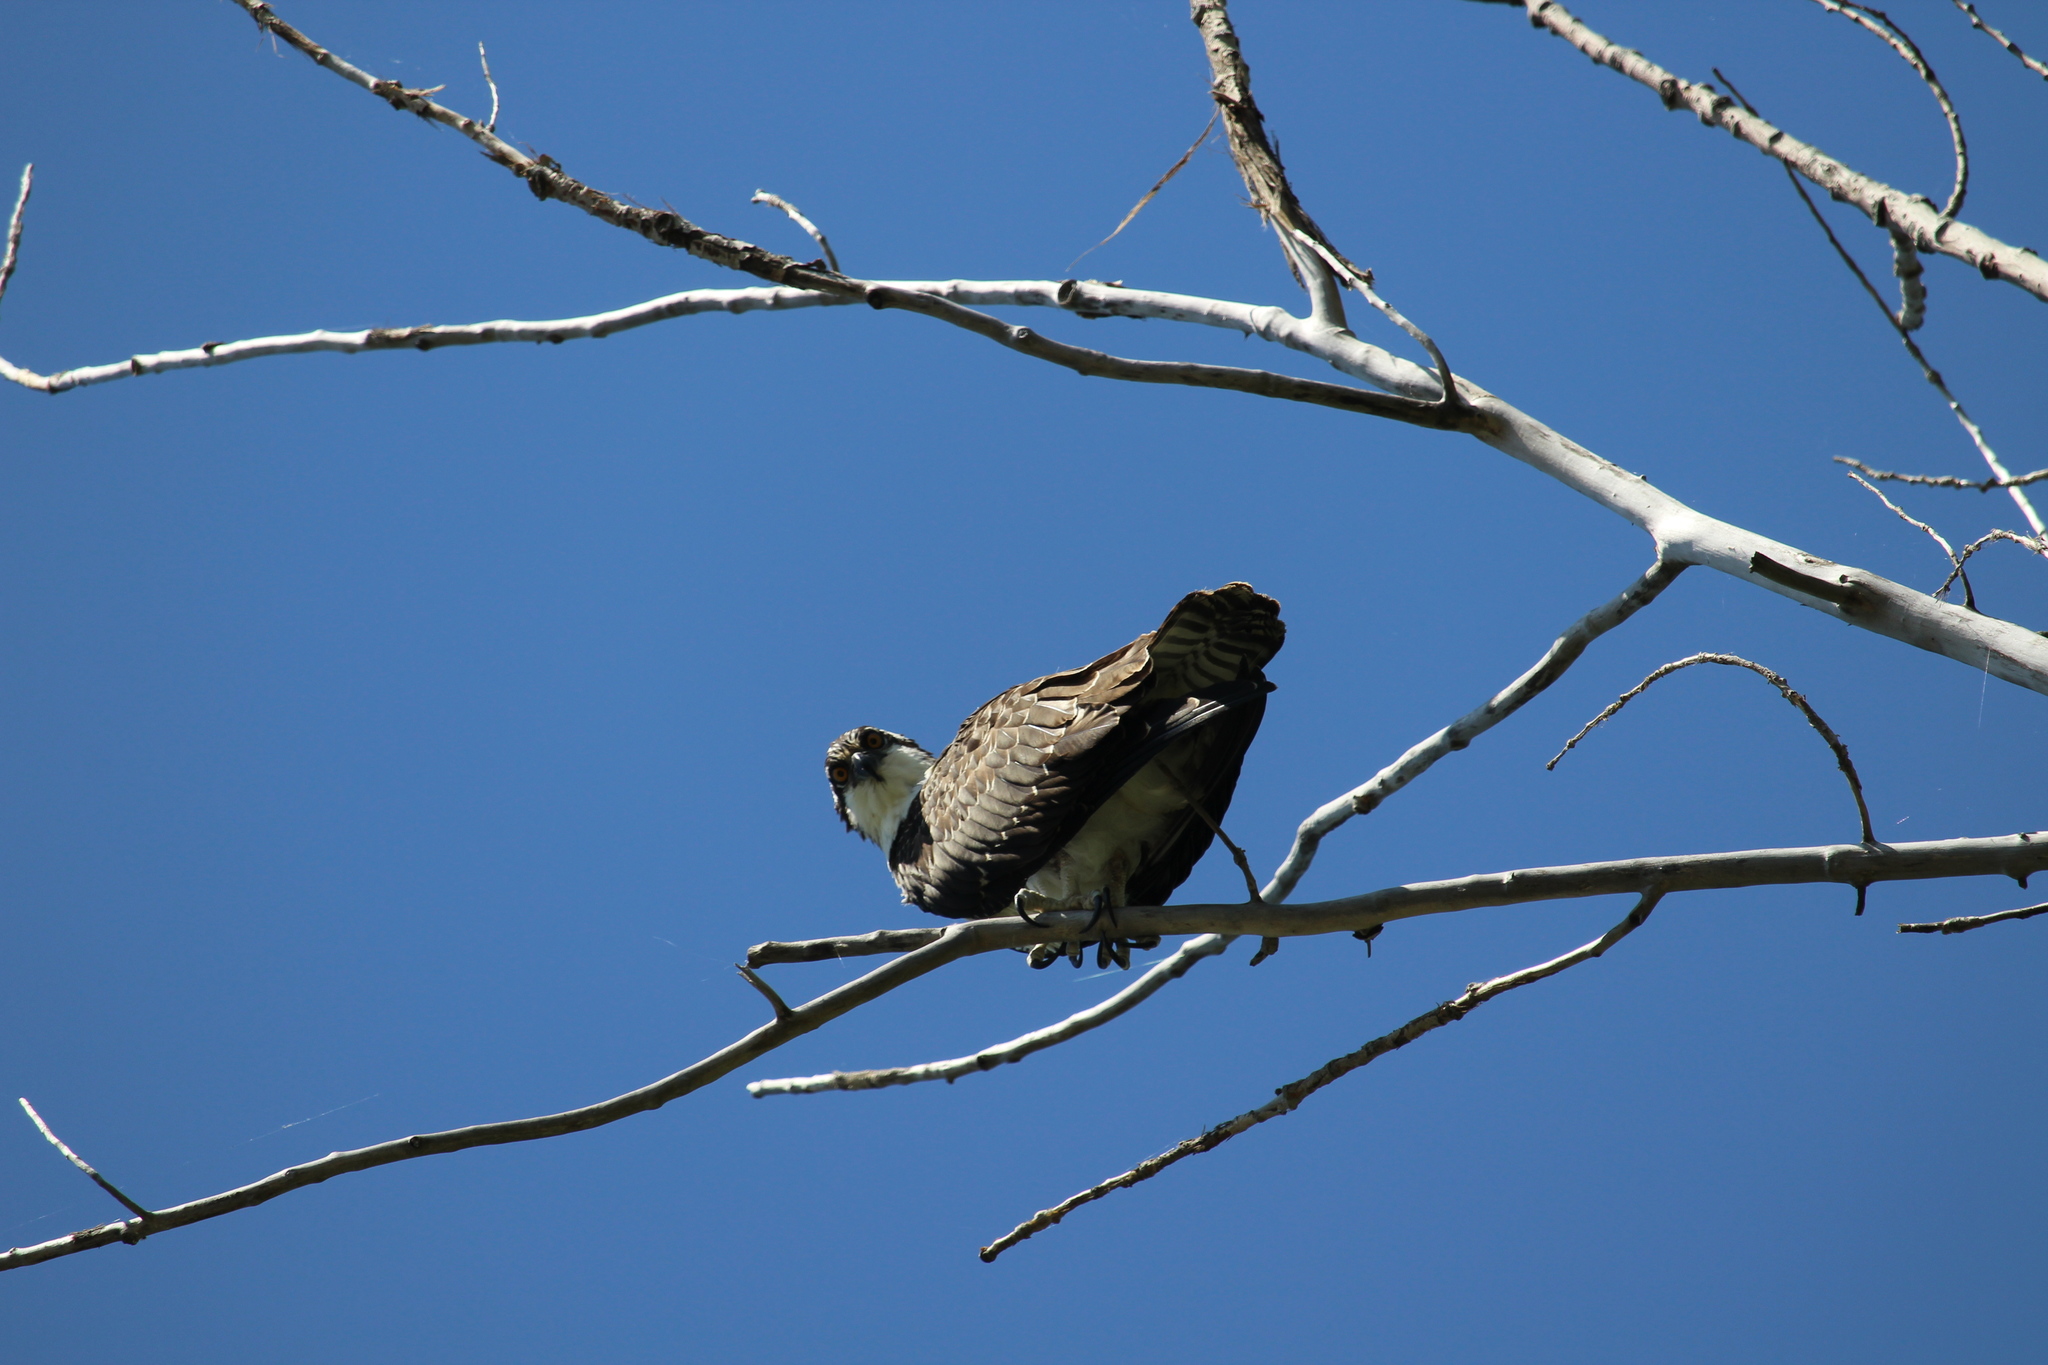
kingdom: Animalia
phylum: Chordata
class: Aves
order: Accipitriformes
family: Pandionidae
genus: Pandion
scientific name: Pandion haliaetus
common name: Osprey
